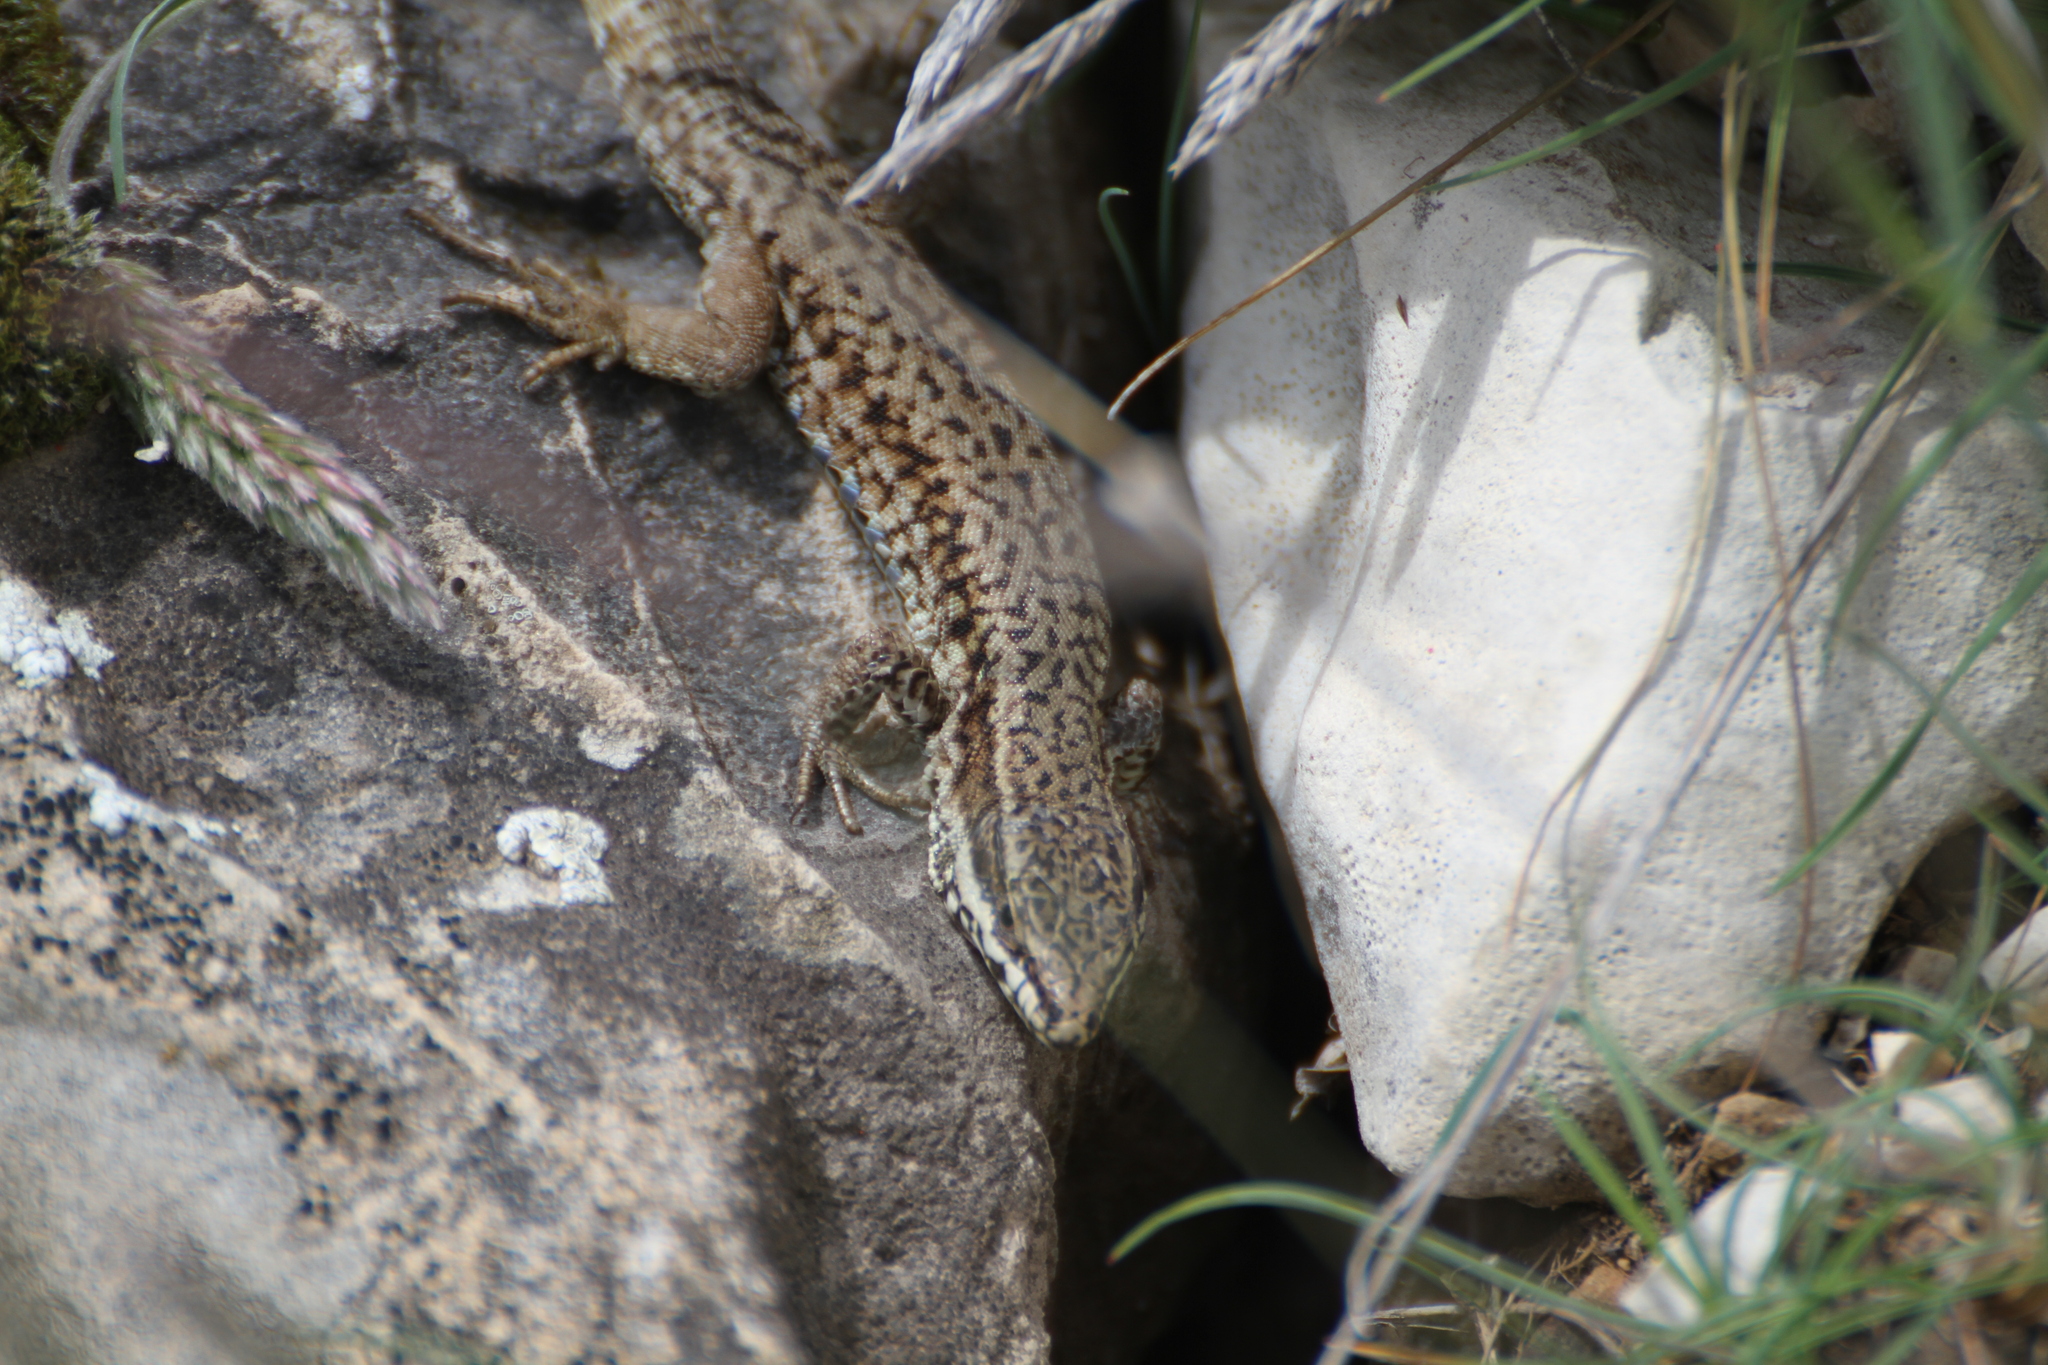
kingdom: Animalia
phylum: Chordata
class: Squamata
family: Lacertidae
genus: Podarcis
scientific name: Podarcis muralis
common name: Common wall lizard
